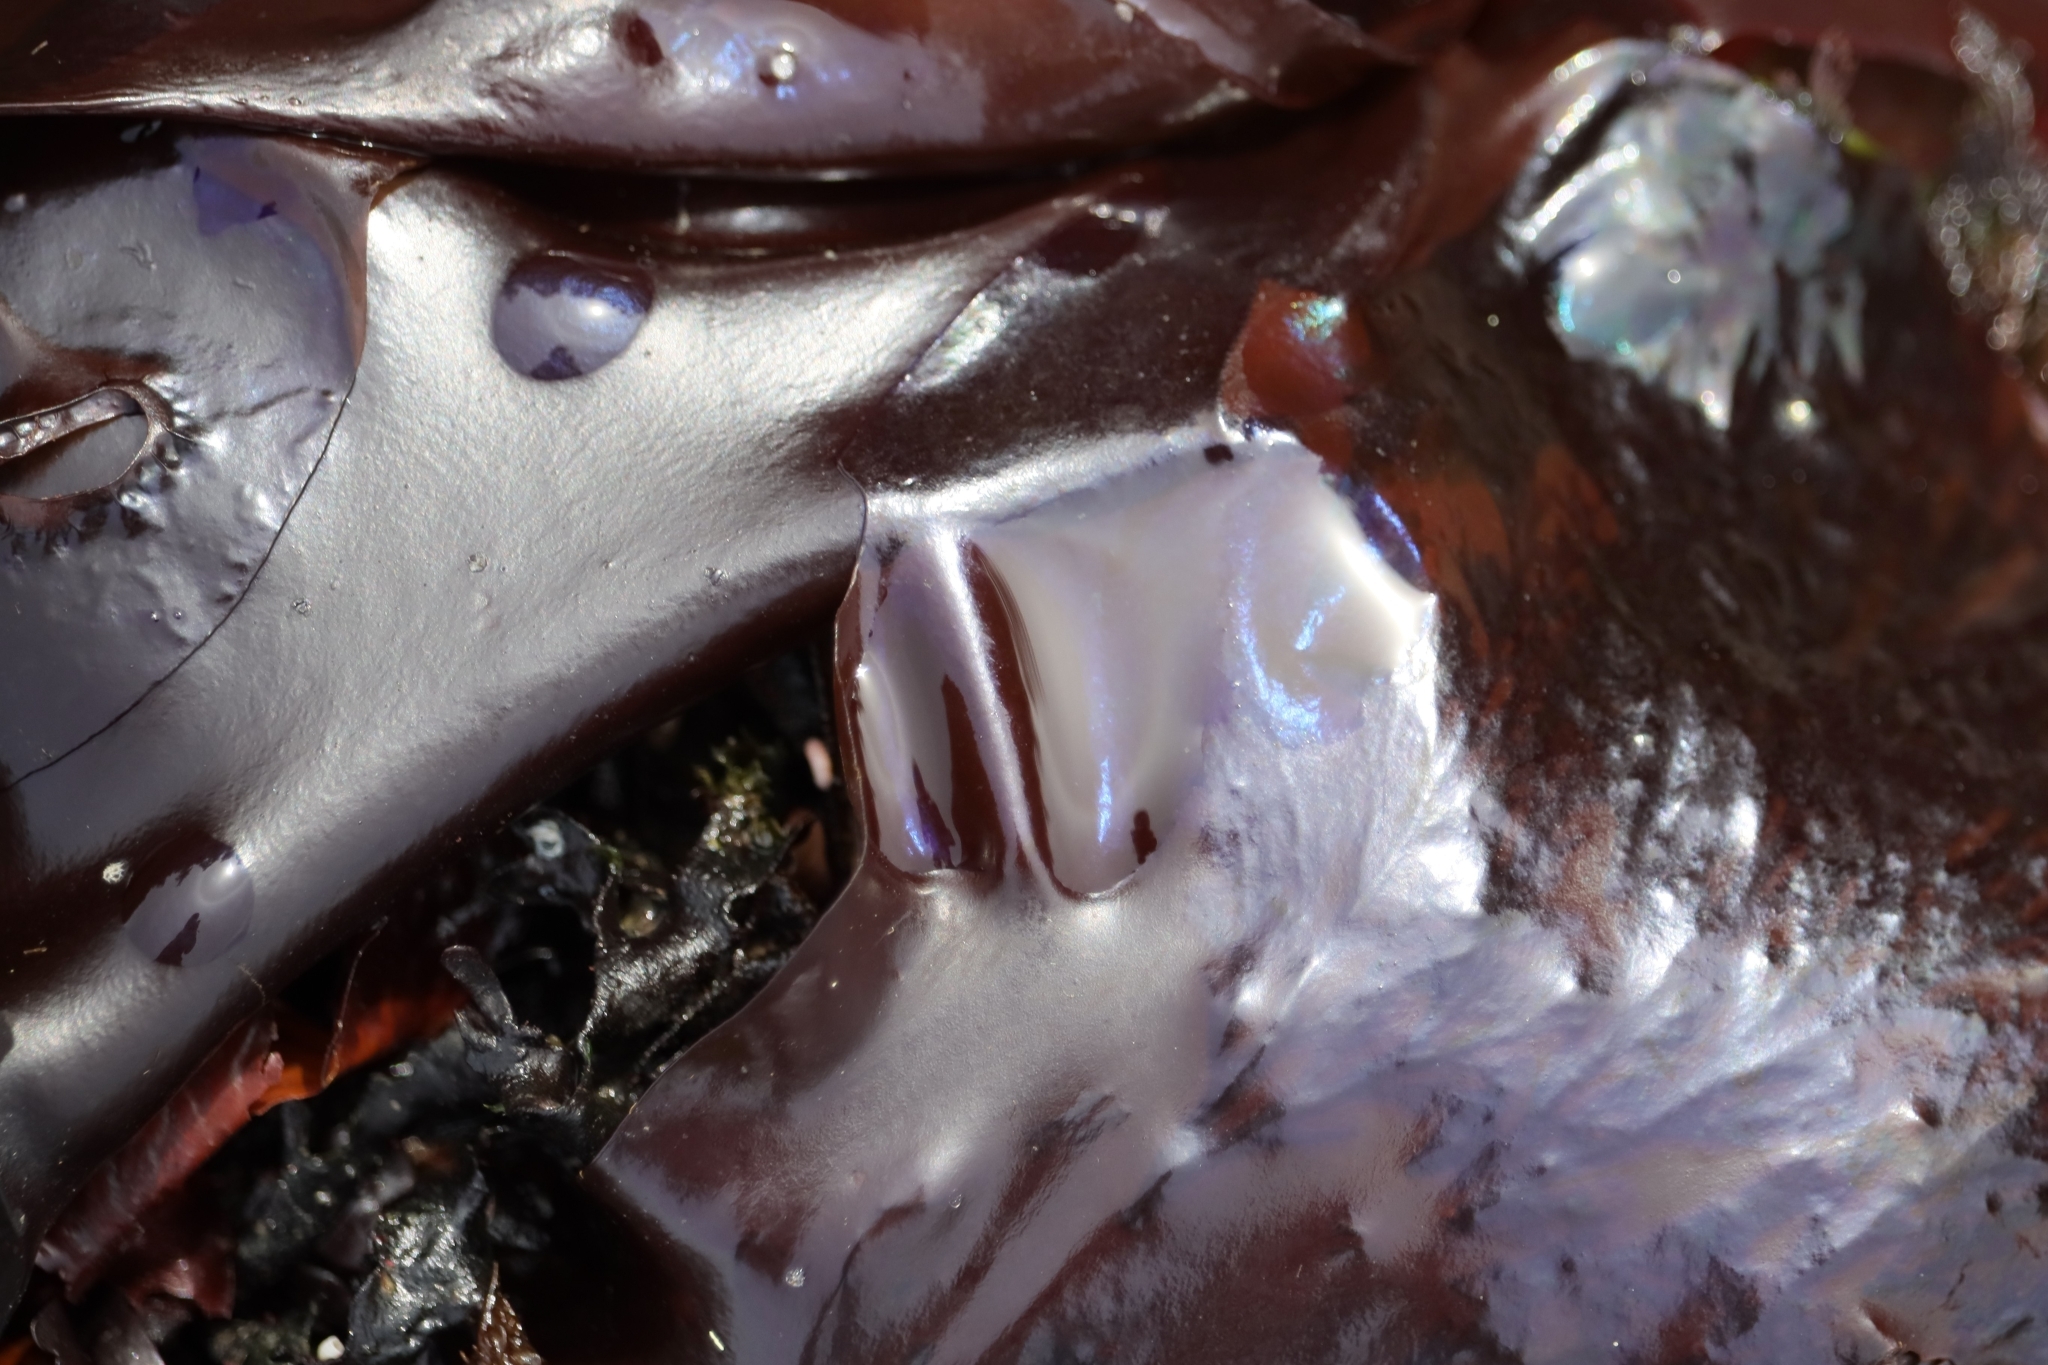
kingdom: Plantae
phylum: Rhodophyta
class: Florideophyceae
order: Gigartinales
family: Gigartinaceae
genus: Mazzaella
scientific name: Mazzaella splendens
